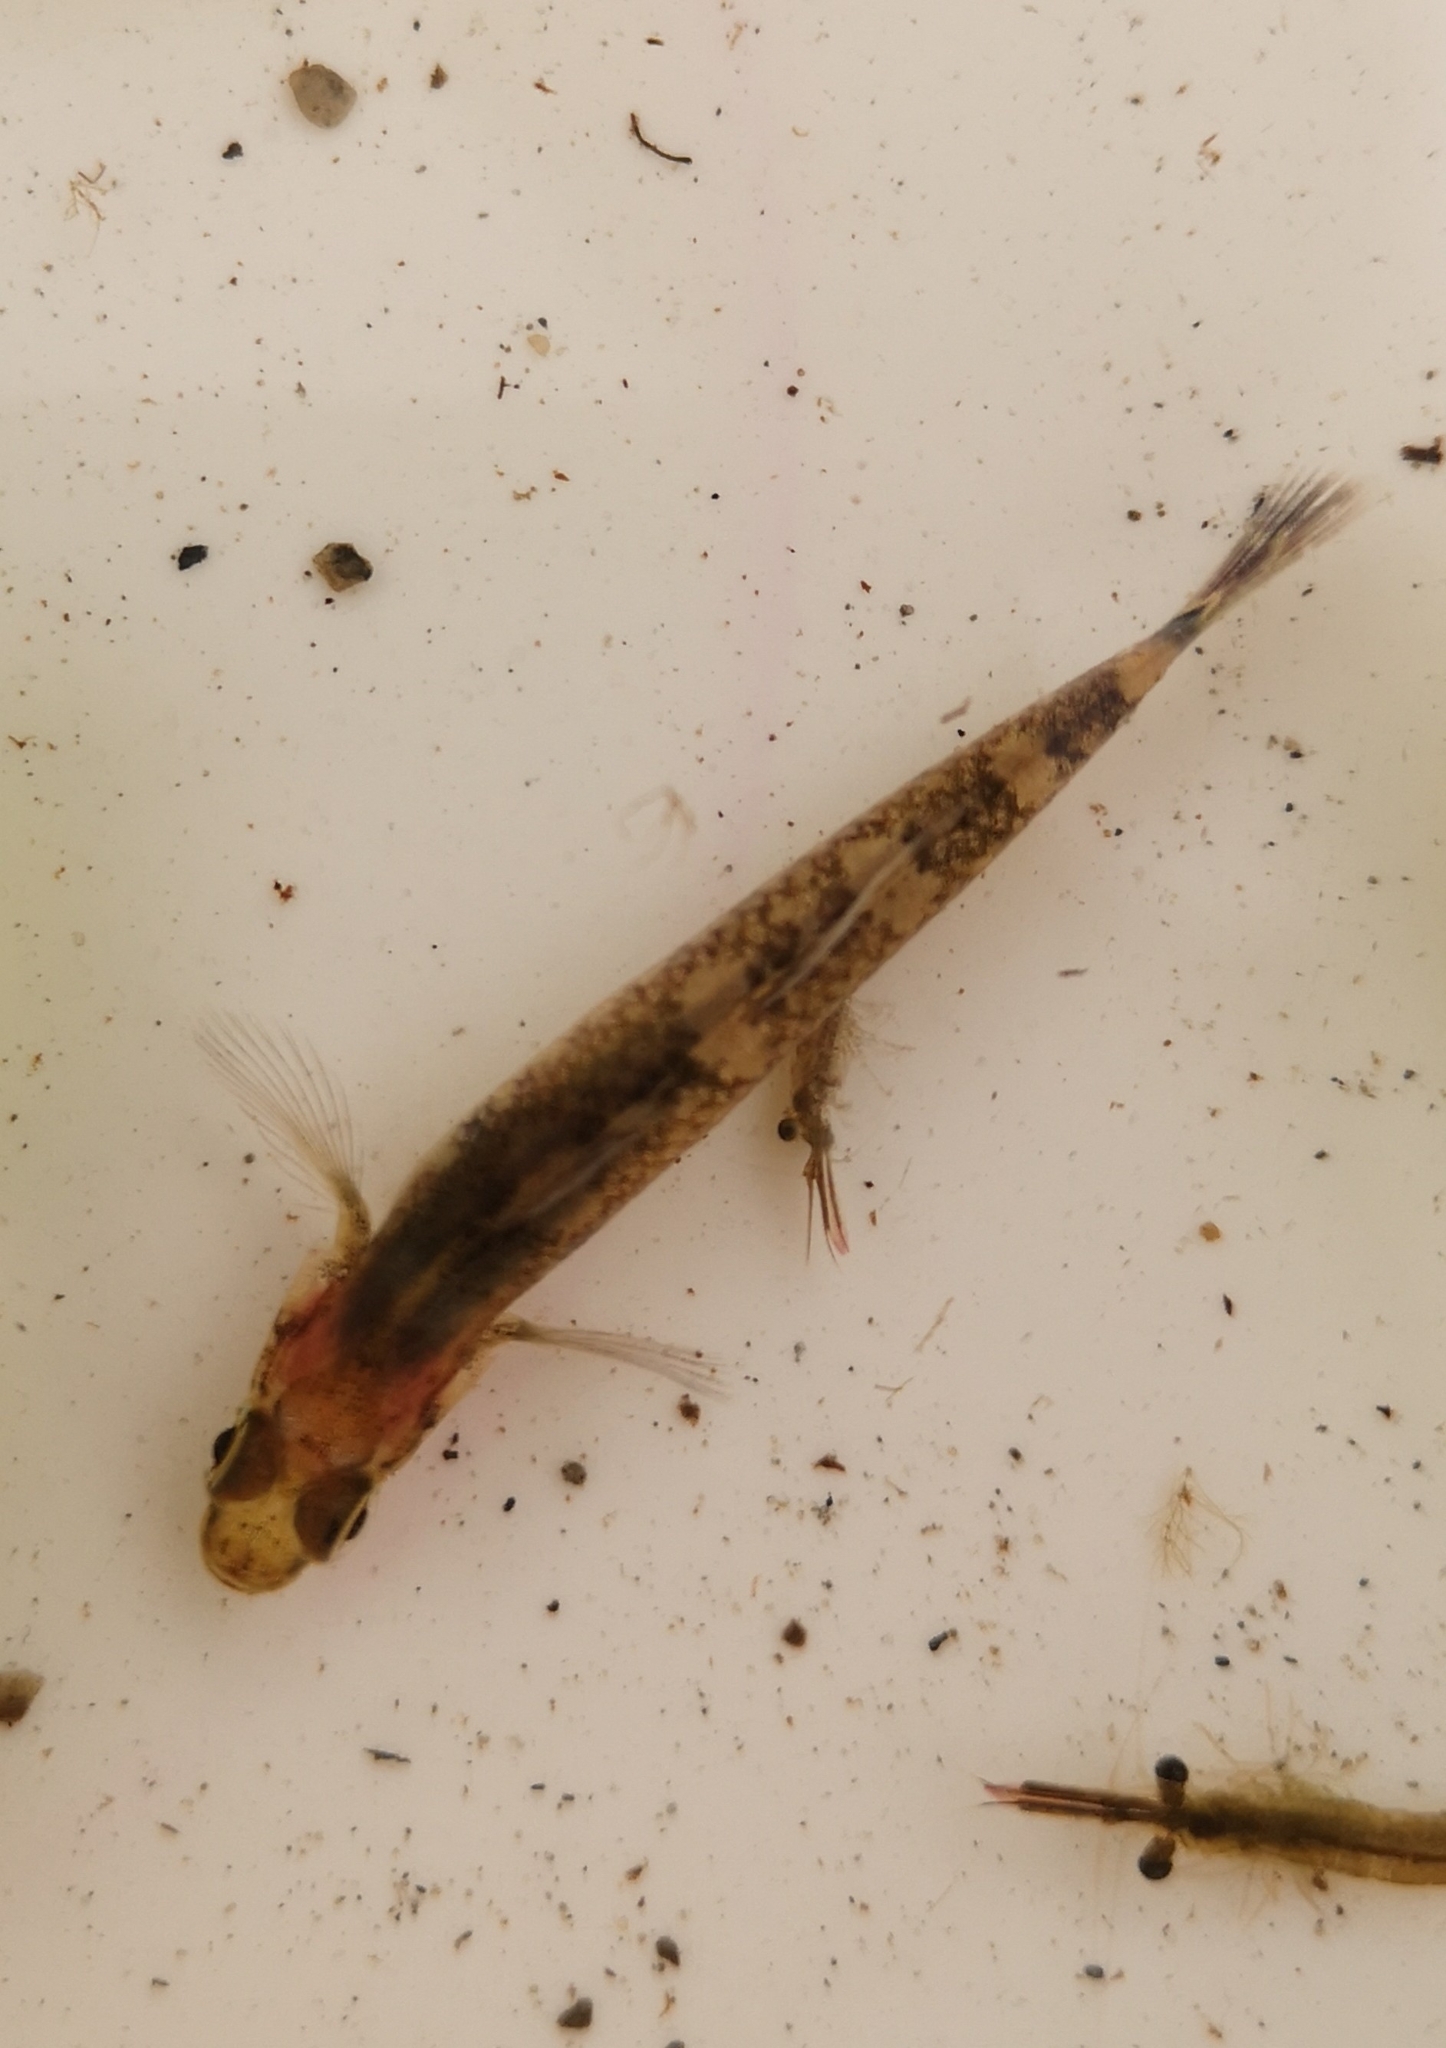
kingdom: Animalia
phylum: Chordata
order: Perciformes
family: Gobiidae
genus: Gobiusculus
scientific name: Gobiusculus flavescens
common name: Two-spotted goby
